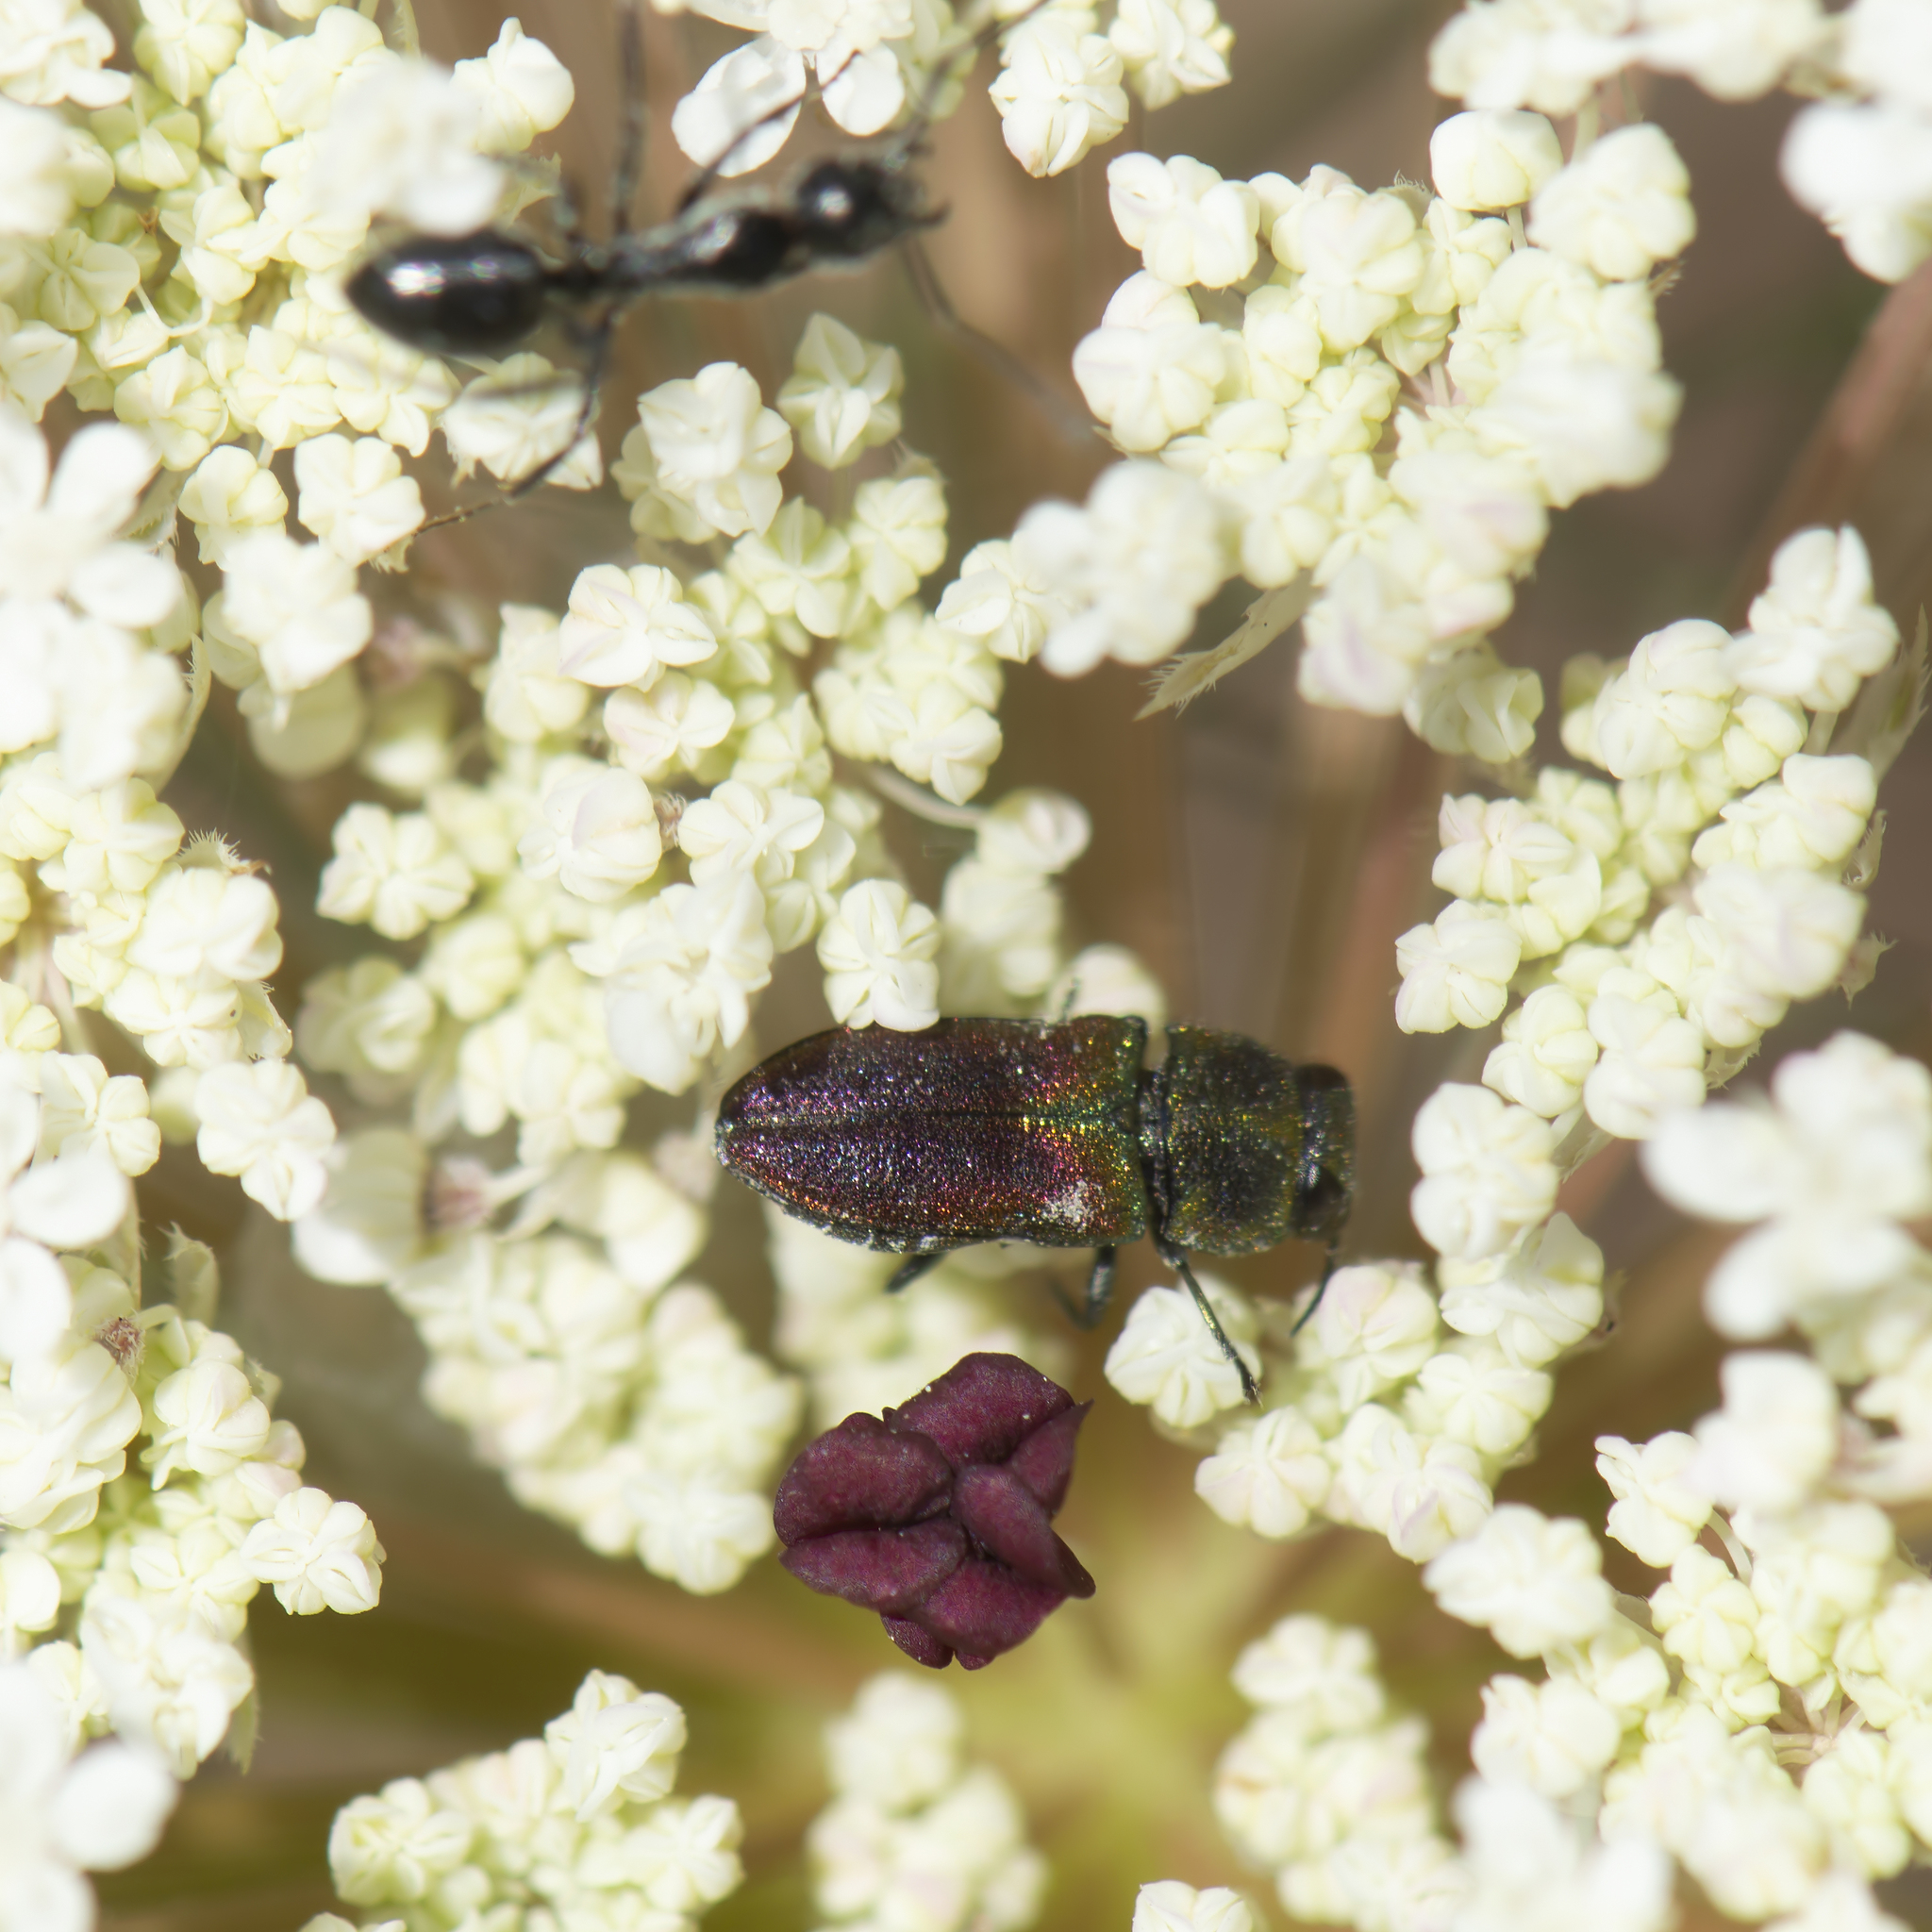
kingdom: Animalia
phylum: Arthropoda
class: Insecta
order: Coleoptera
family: Buprestidae
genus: Anthaxia
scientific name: Anthaxia praeclara
